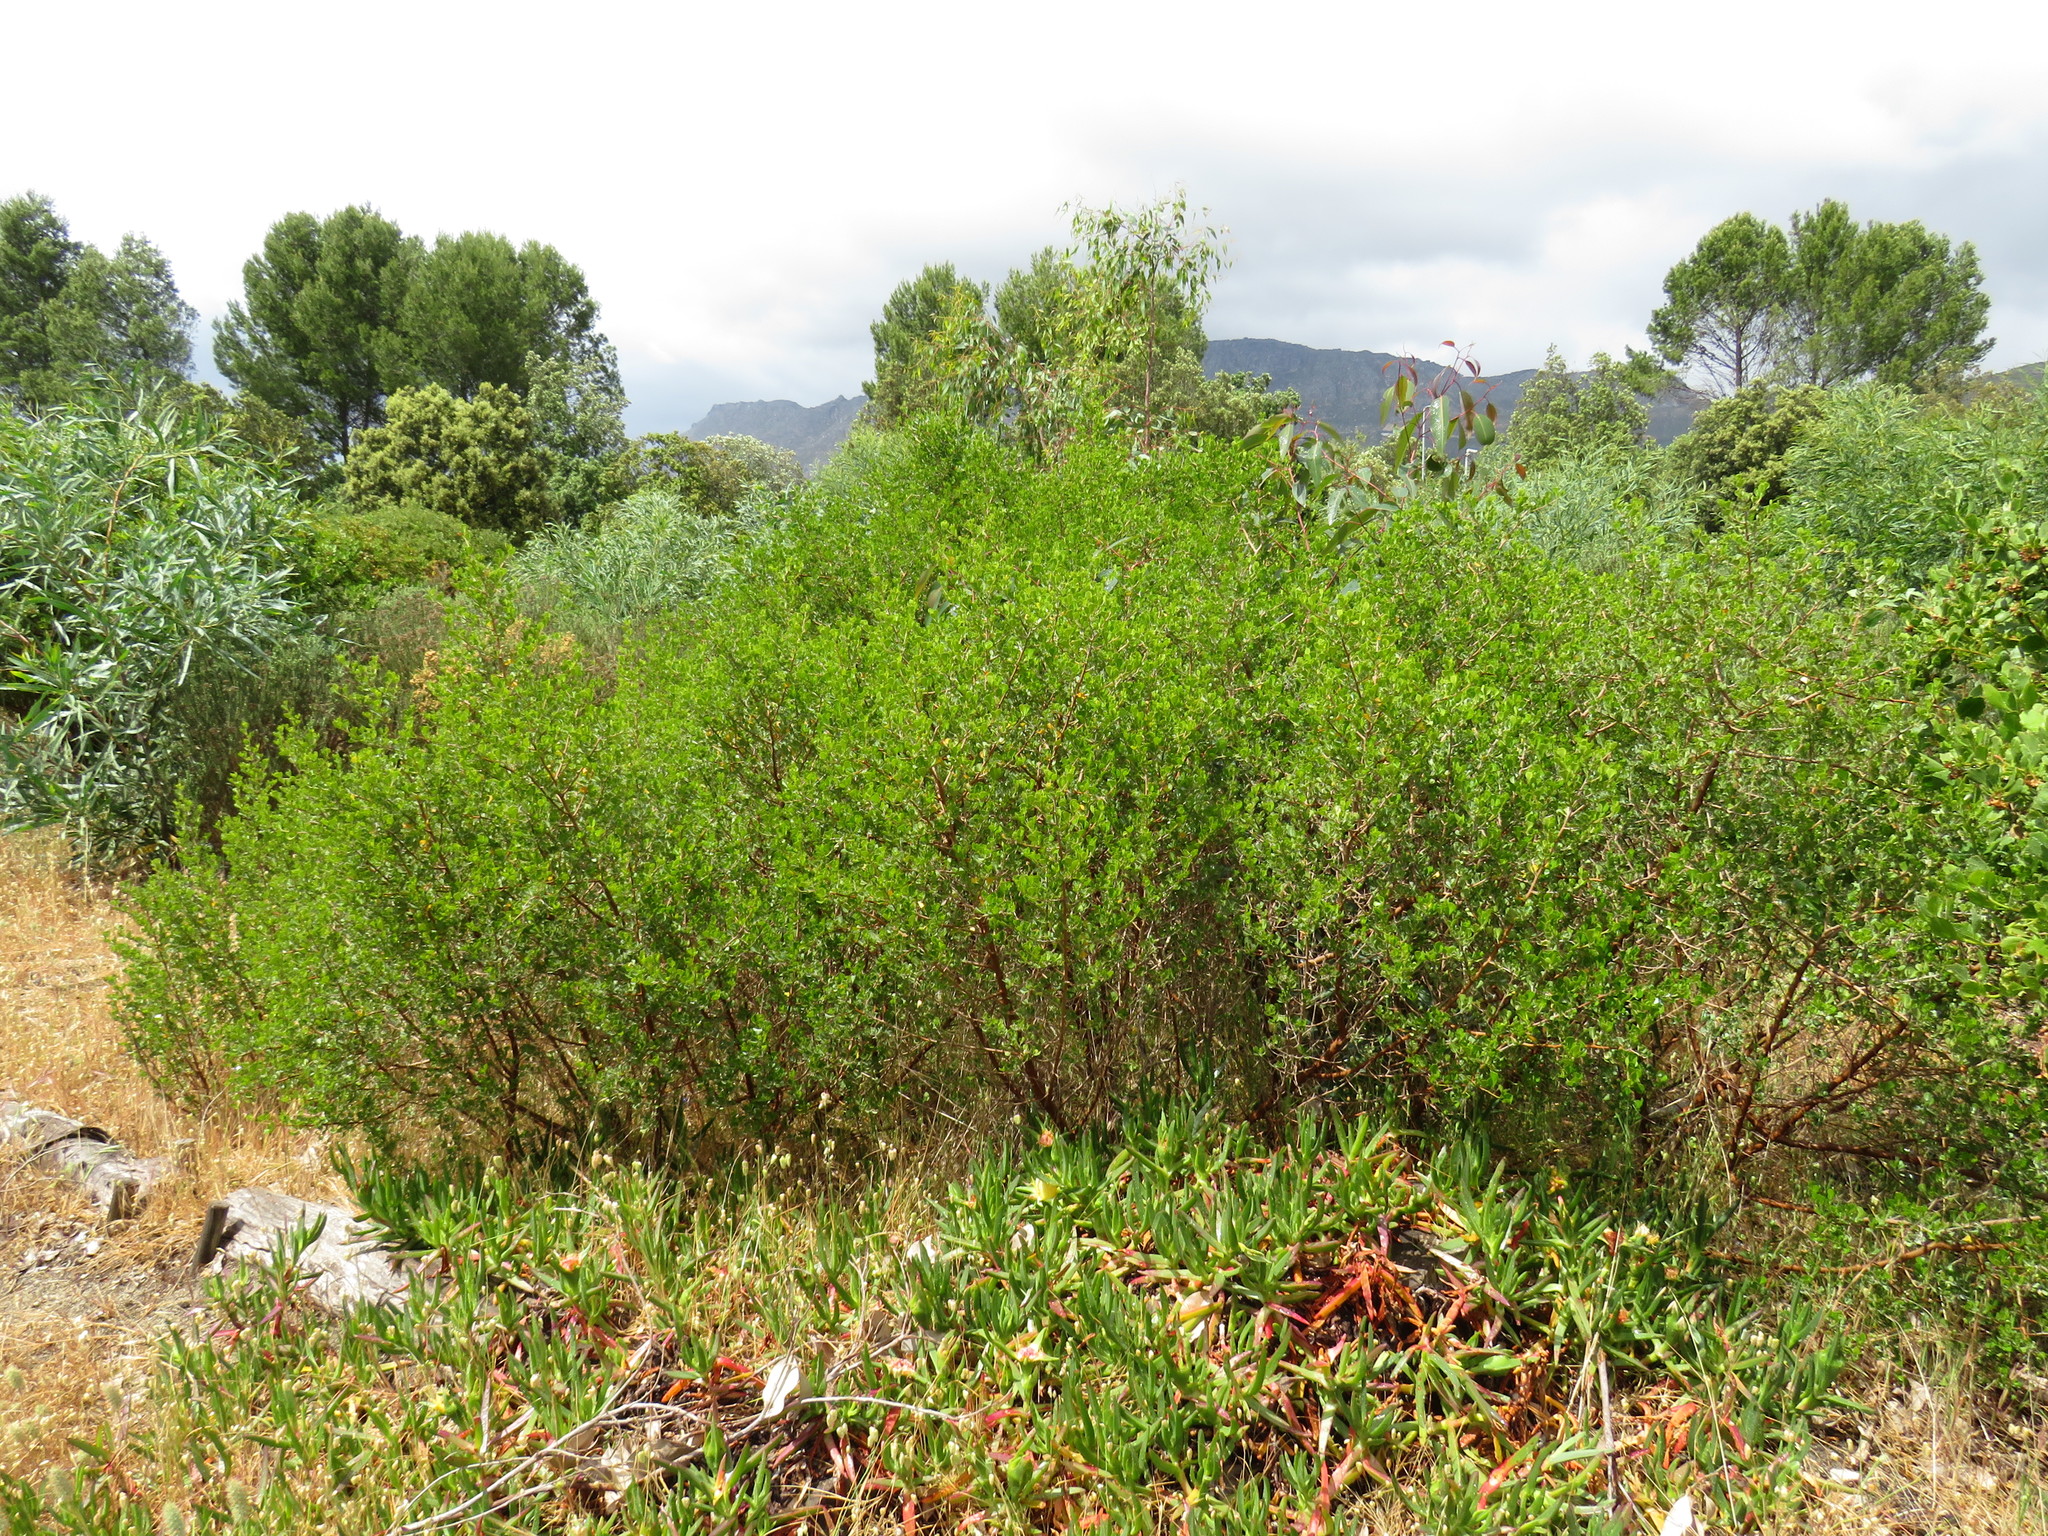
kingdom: Plantae
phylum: Tracheophyta
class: Magnoliopsida
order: Sapindales
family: Anacardiaceae
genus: Searsia
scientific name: Searsia glauca
